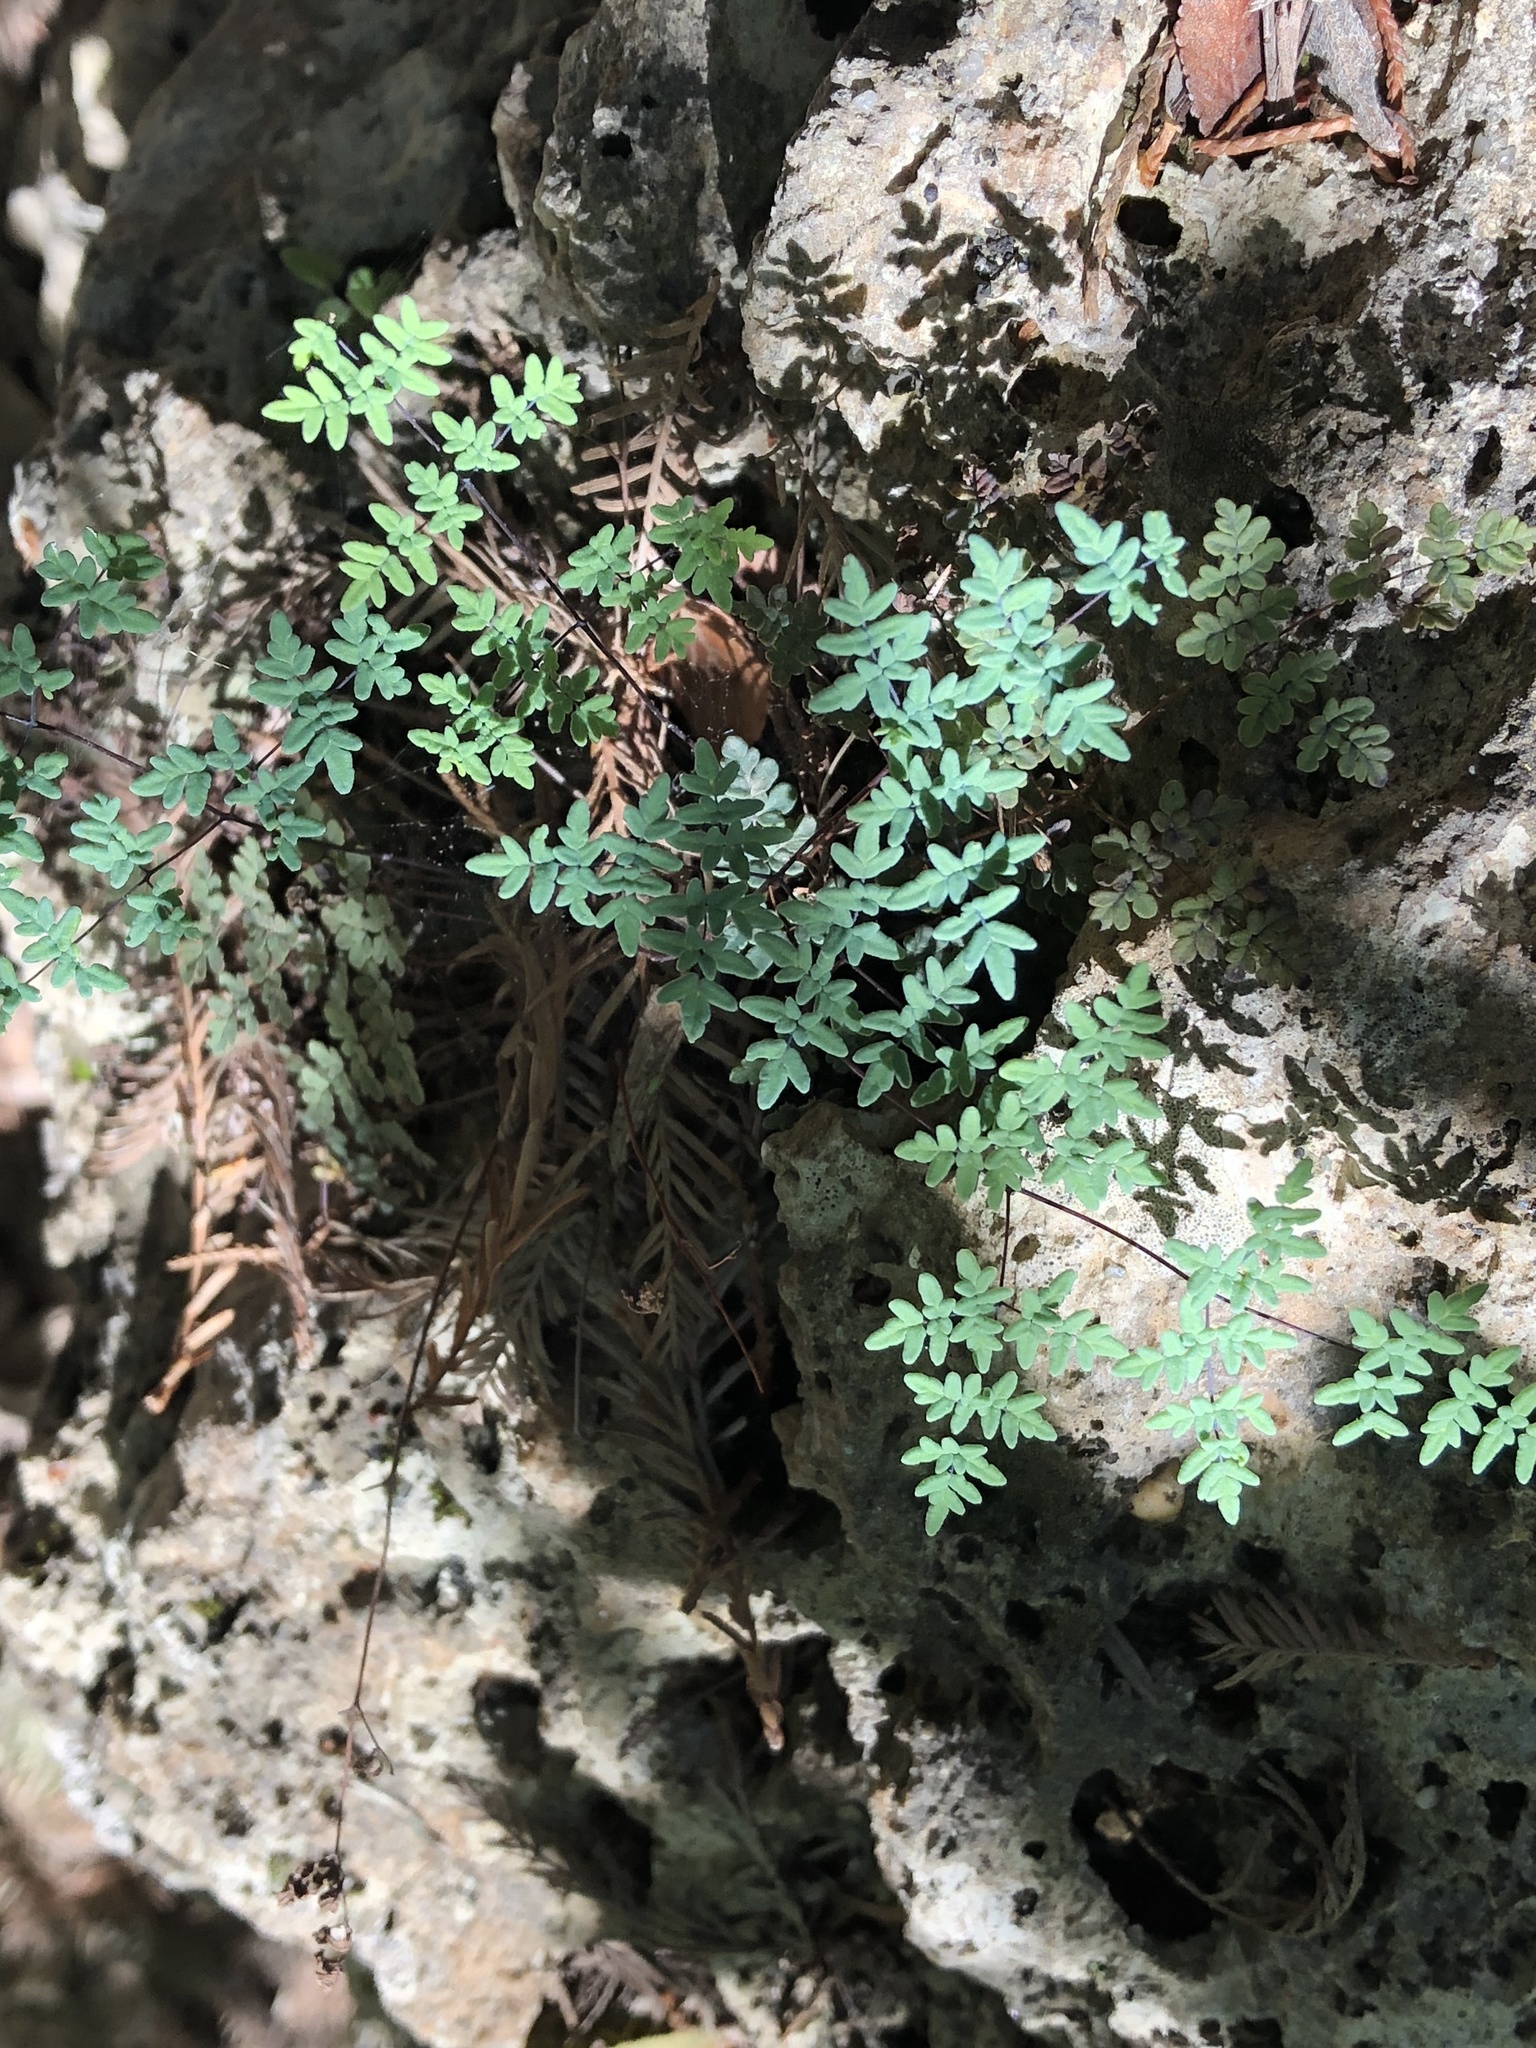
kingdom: Plantae
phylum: Tracheophyta
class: Polypodiopsida
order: Polypodiales
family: Pteridaceae
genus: Argyrochosma
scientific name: Argyrochosma dealbata
